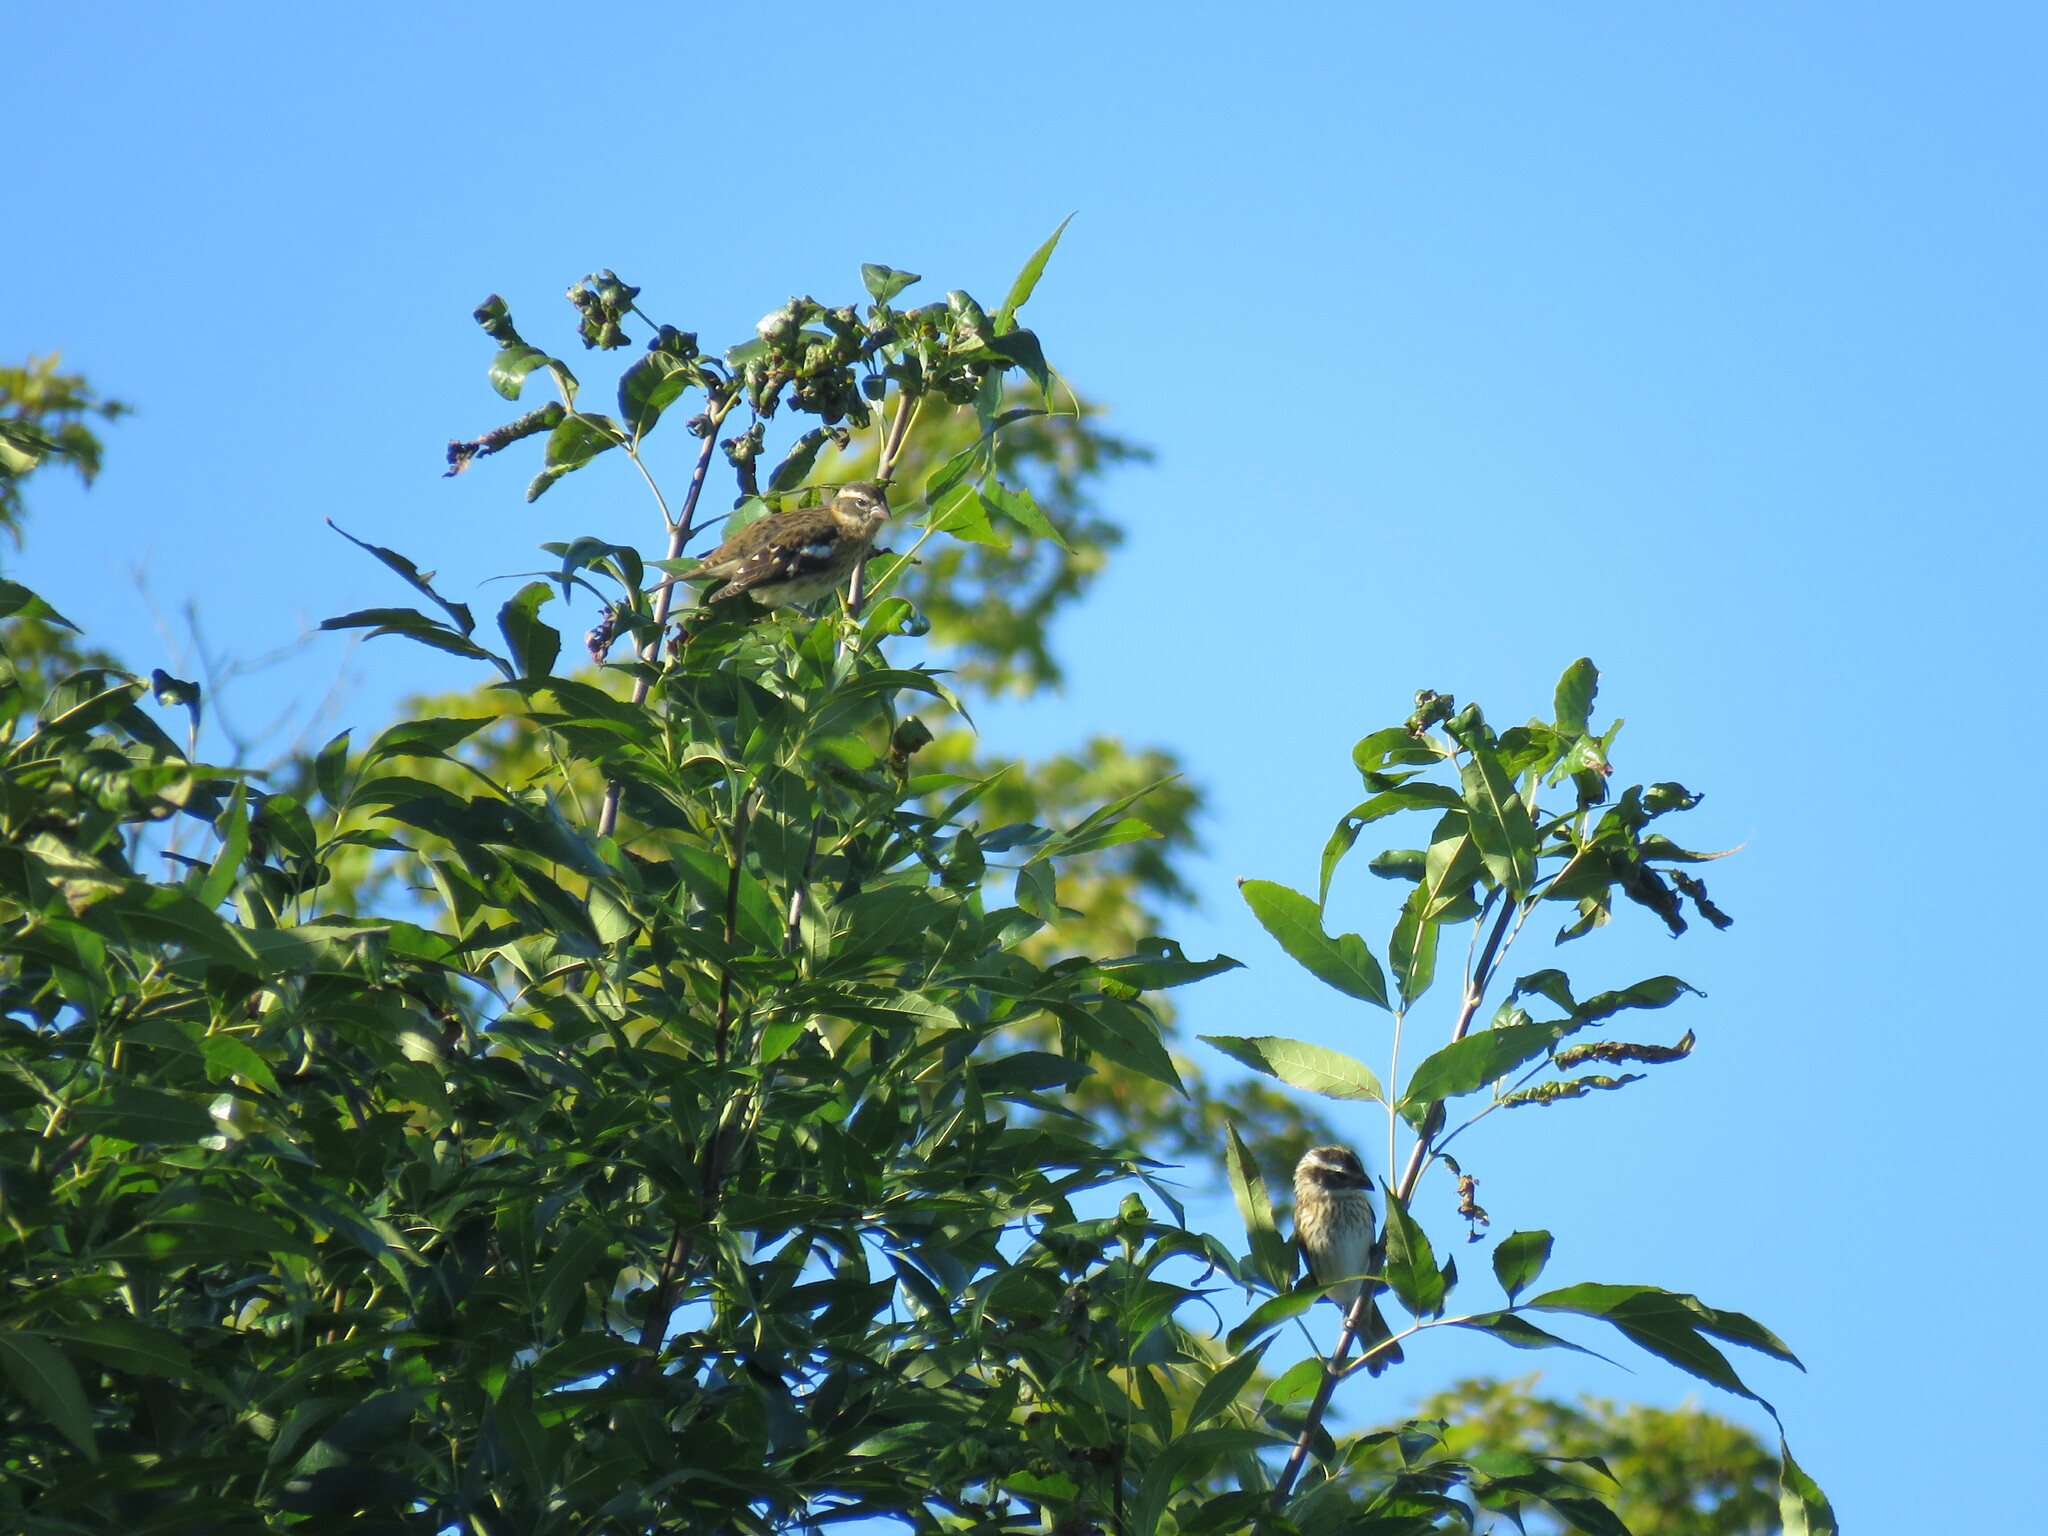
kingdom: Animalia
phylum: Chordata
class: Aves
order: Passeriformes
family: Cardinalidae
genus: Pheucticus
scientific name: Pheucticus ludovicianus
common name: Rose-breasted grosbeak
